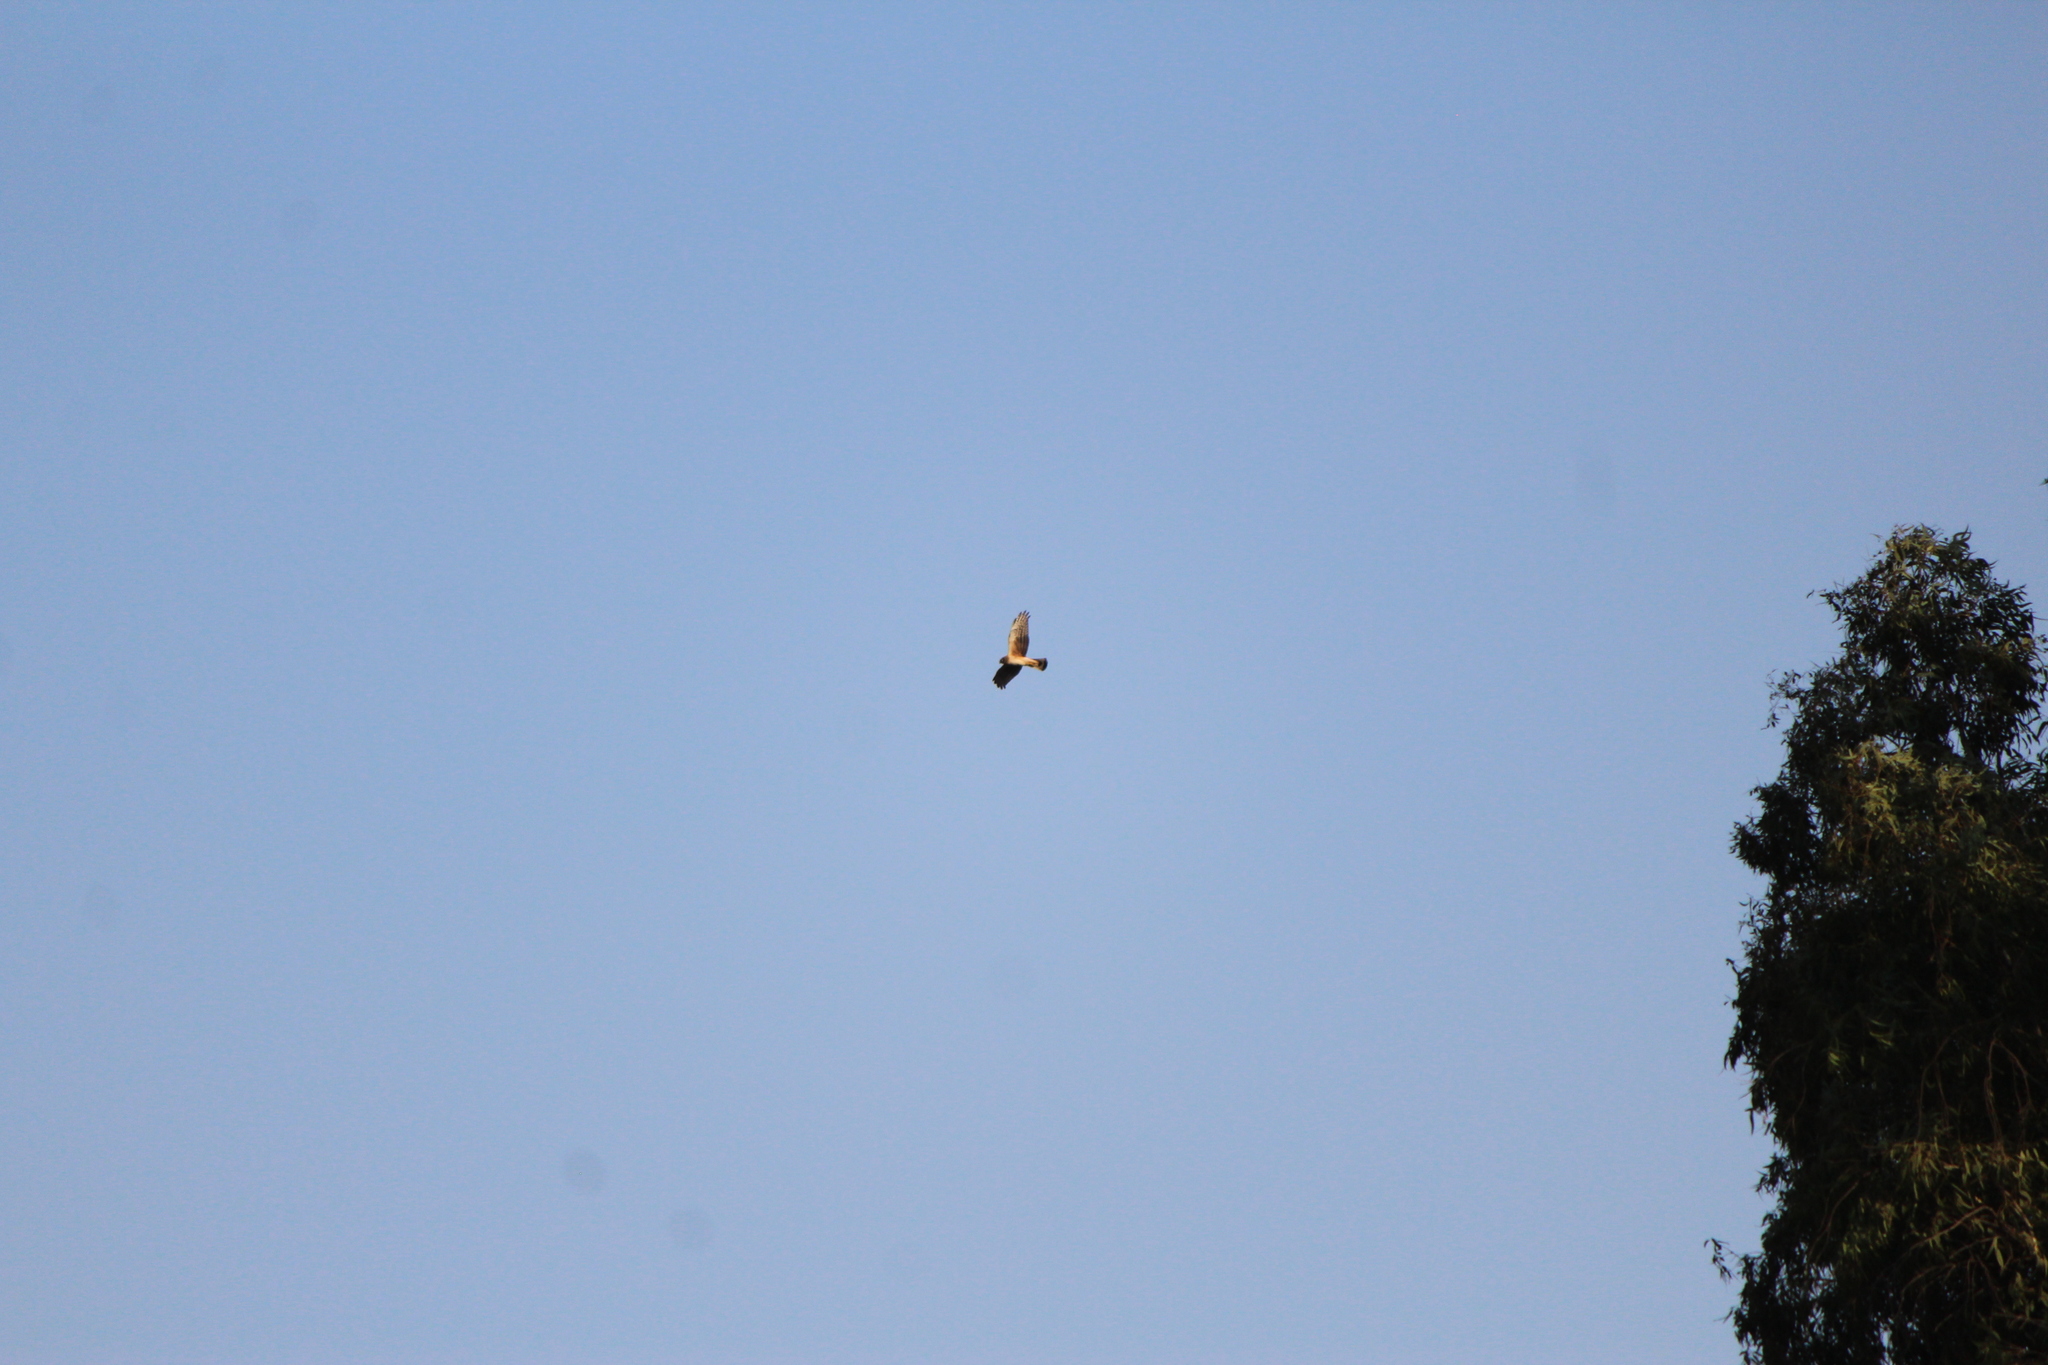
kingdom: Animalia
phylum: Chordata
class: Aves
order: Accipitriformes
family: Accipitridae
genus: Circus
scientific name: Circus cyaneus
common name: Hen harrier
